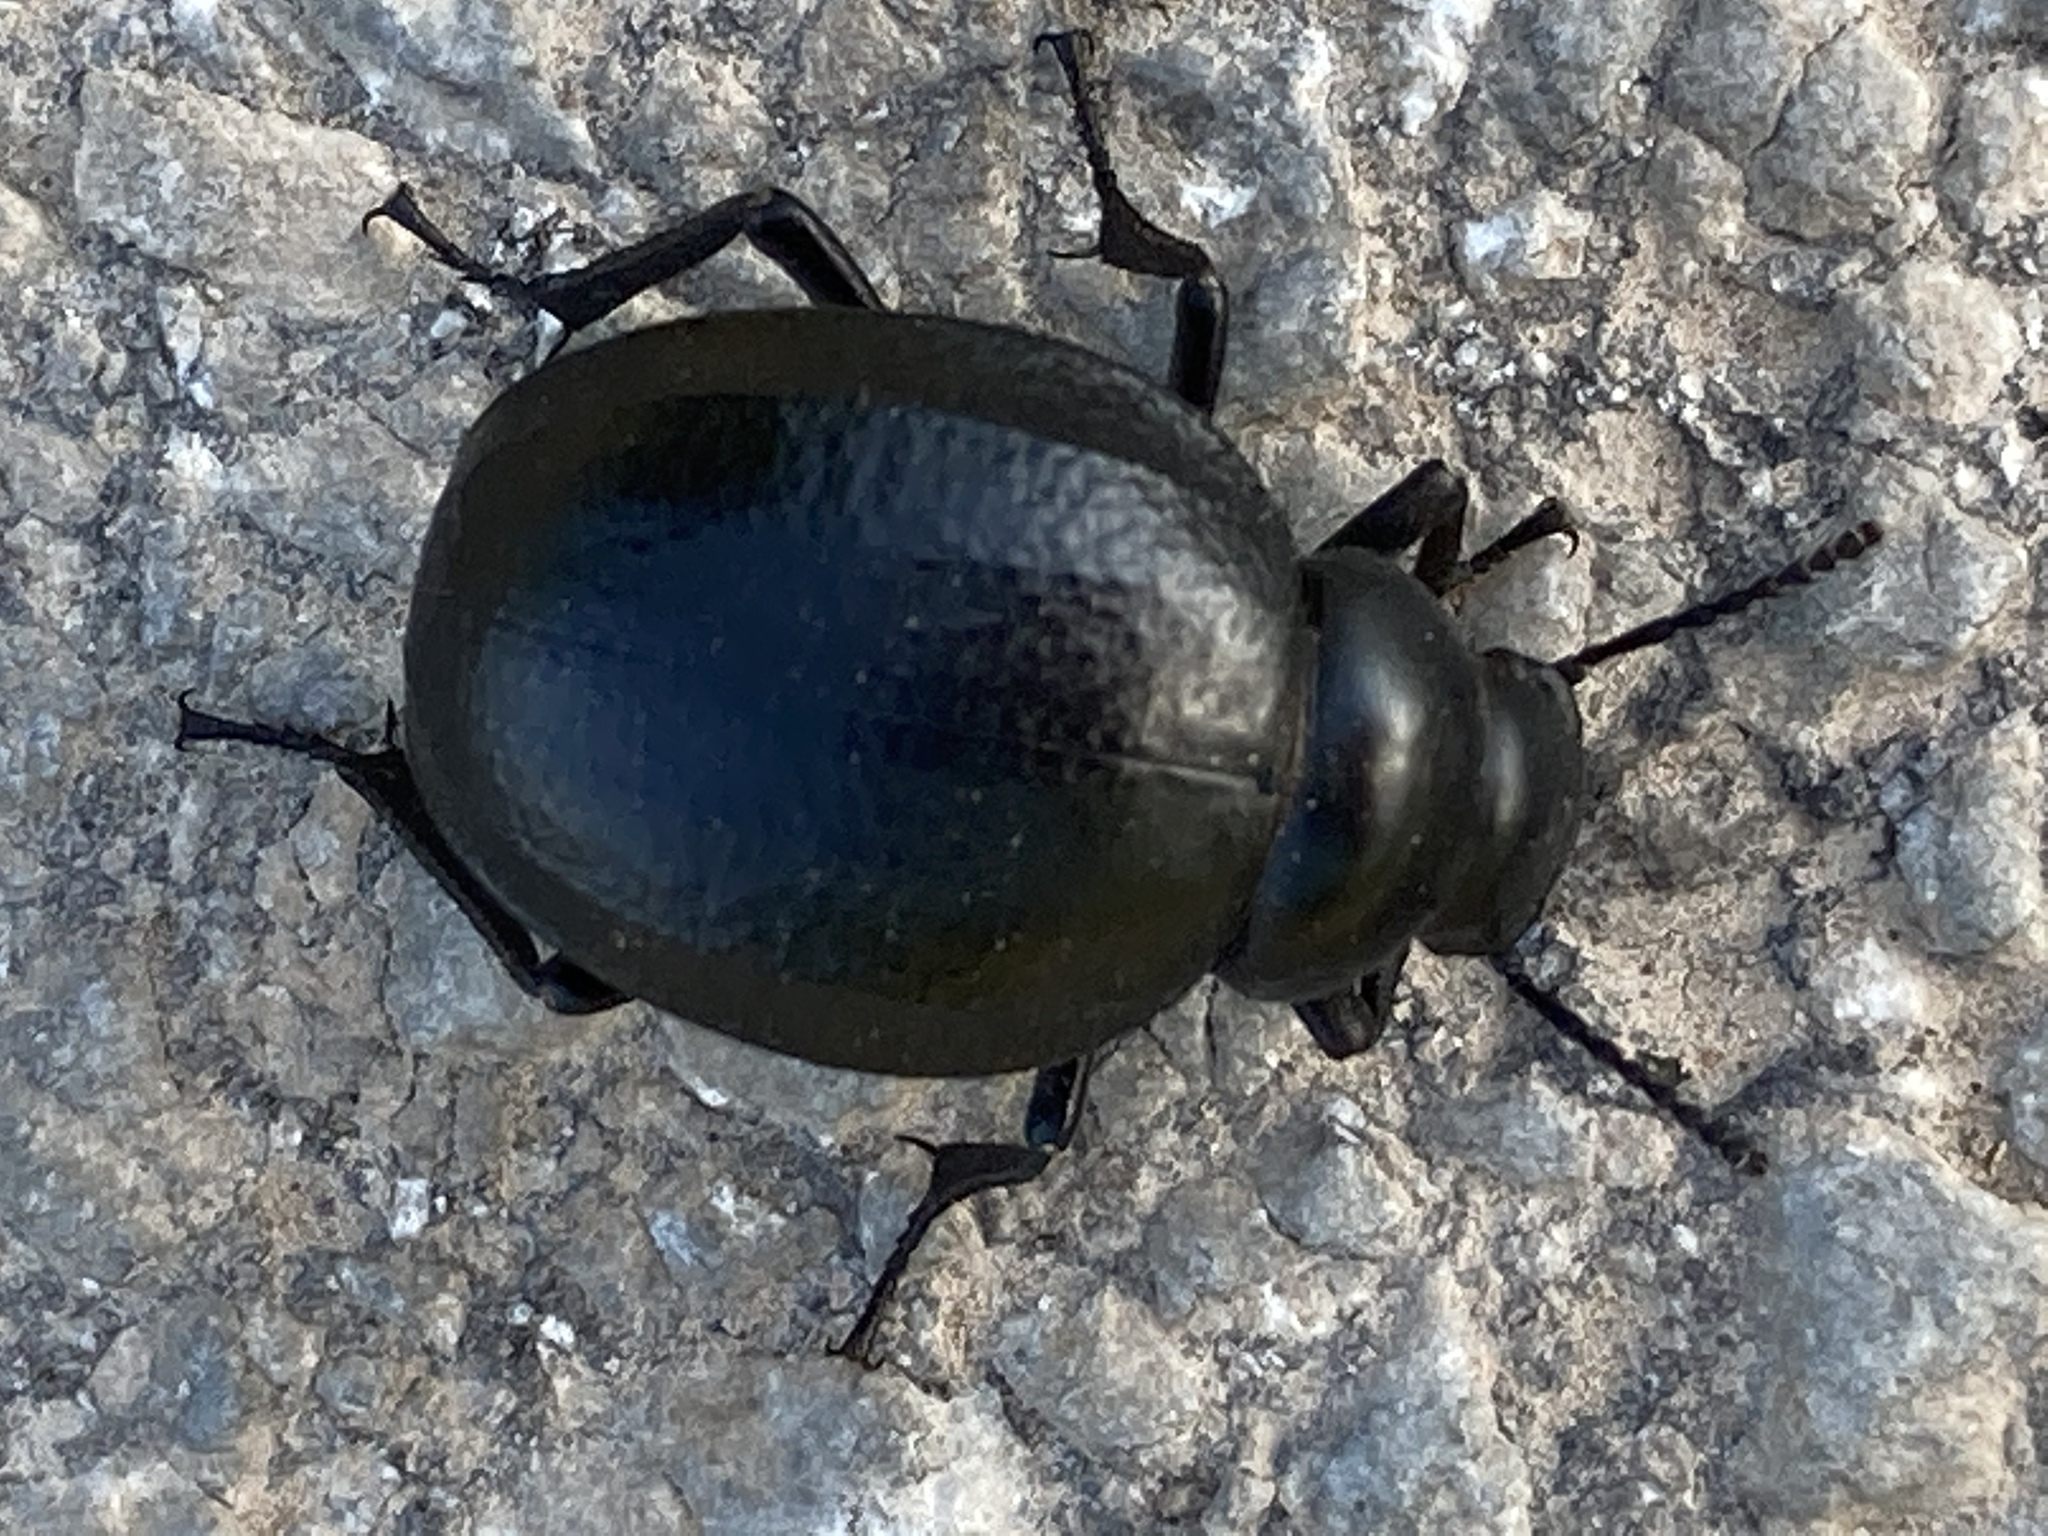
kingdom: Animalia
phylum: Arthropoda
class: Insecta
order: Coleoptera
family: Tenebrionidae
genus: Pimelia
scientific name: Pimelia subglobosa
